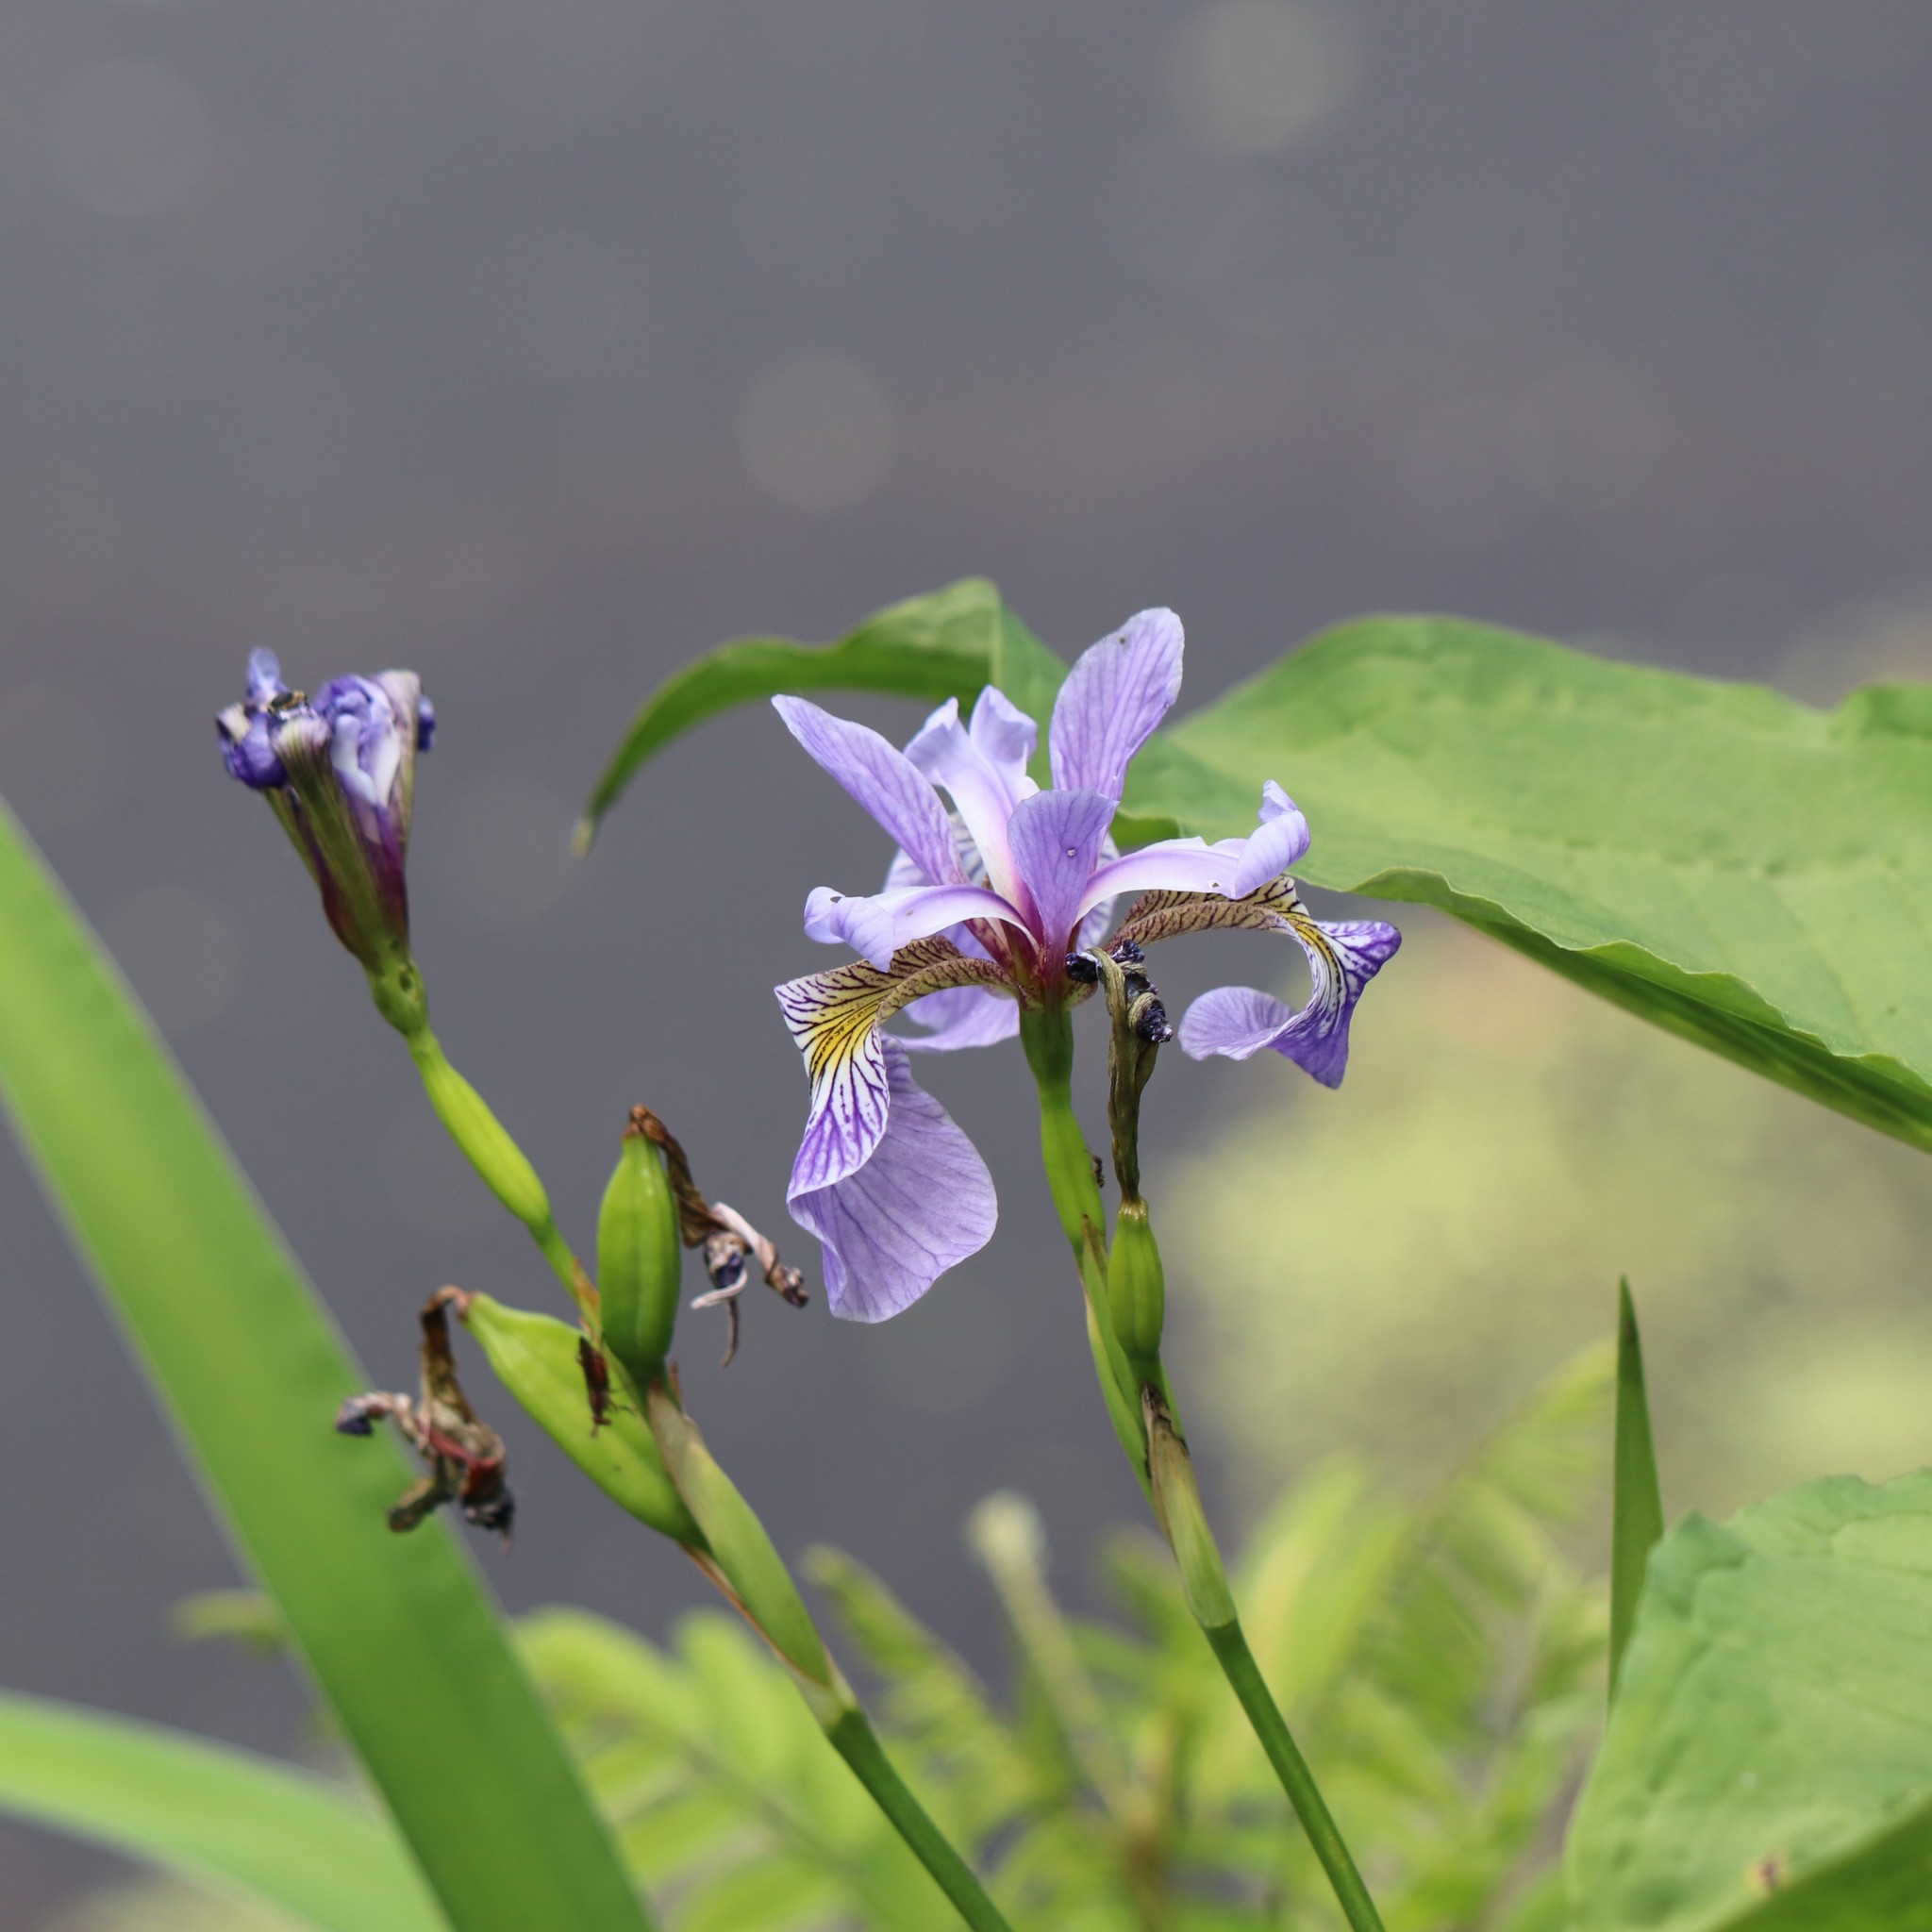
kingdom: Plantae
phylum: Tracheophyta
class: Liliopsida
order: Asparagales
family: Iridaceae
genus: Iris
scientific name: Iris versicolor
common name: Purple iris
